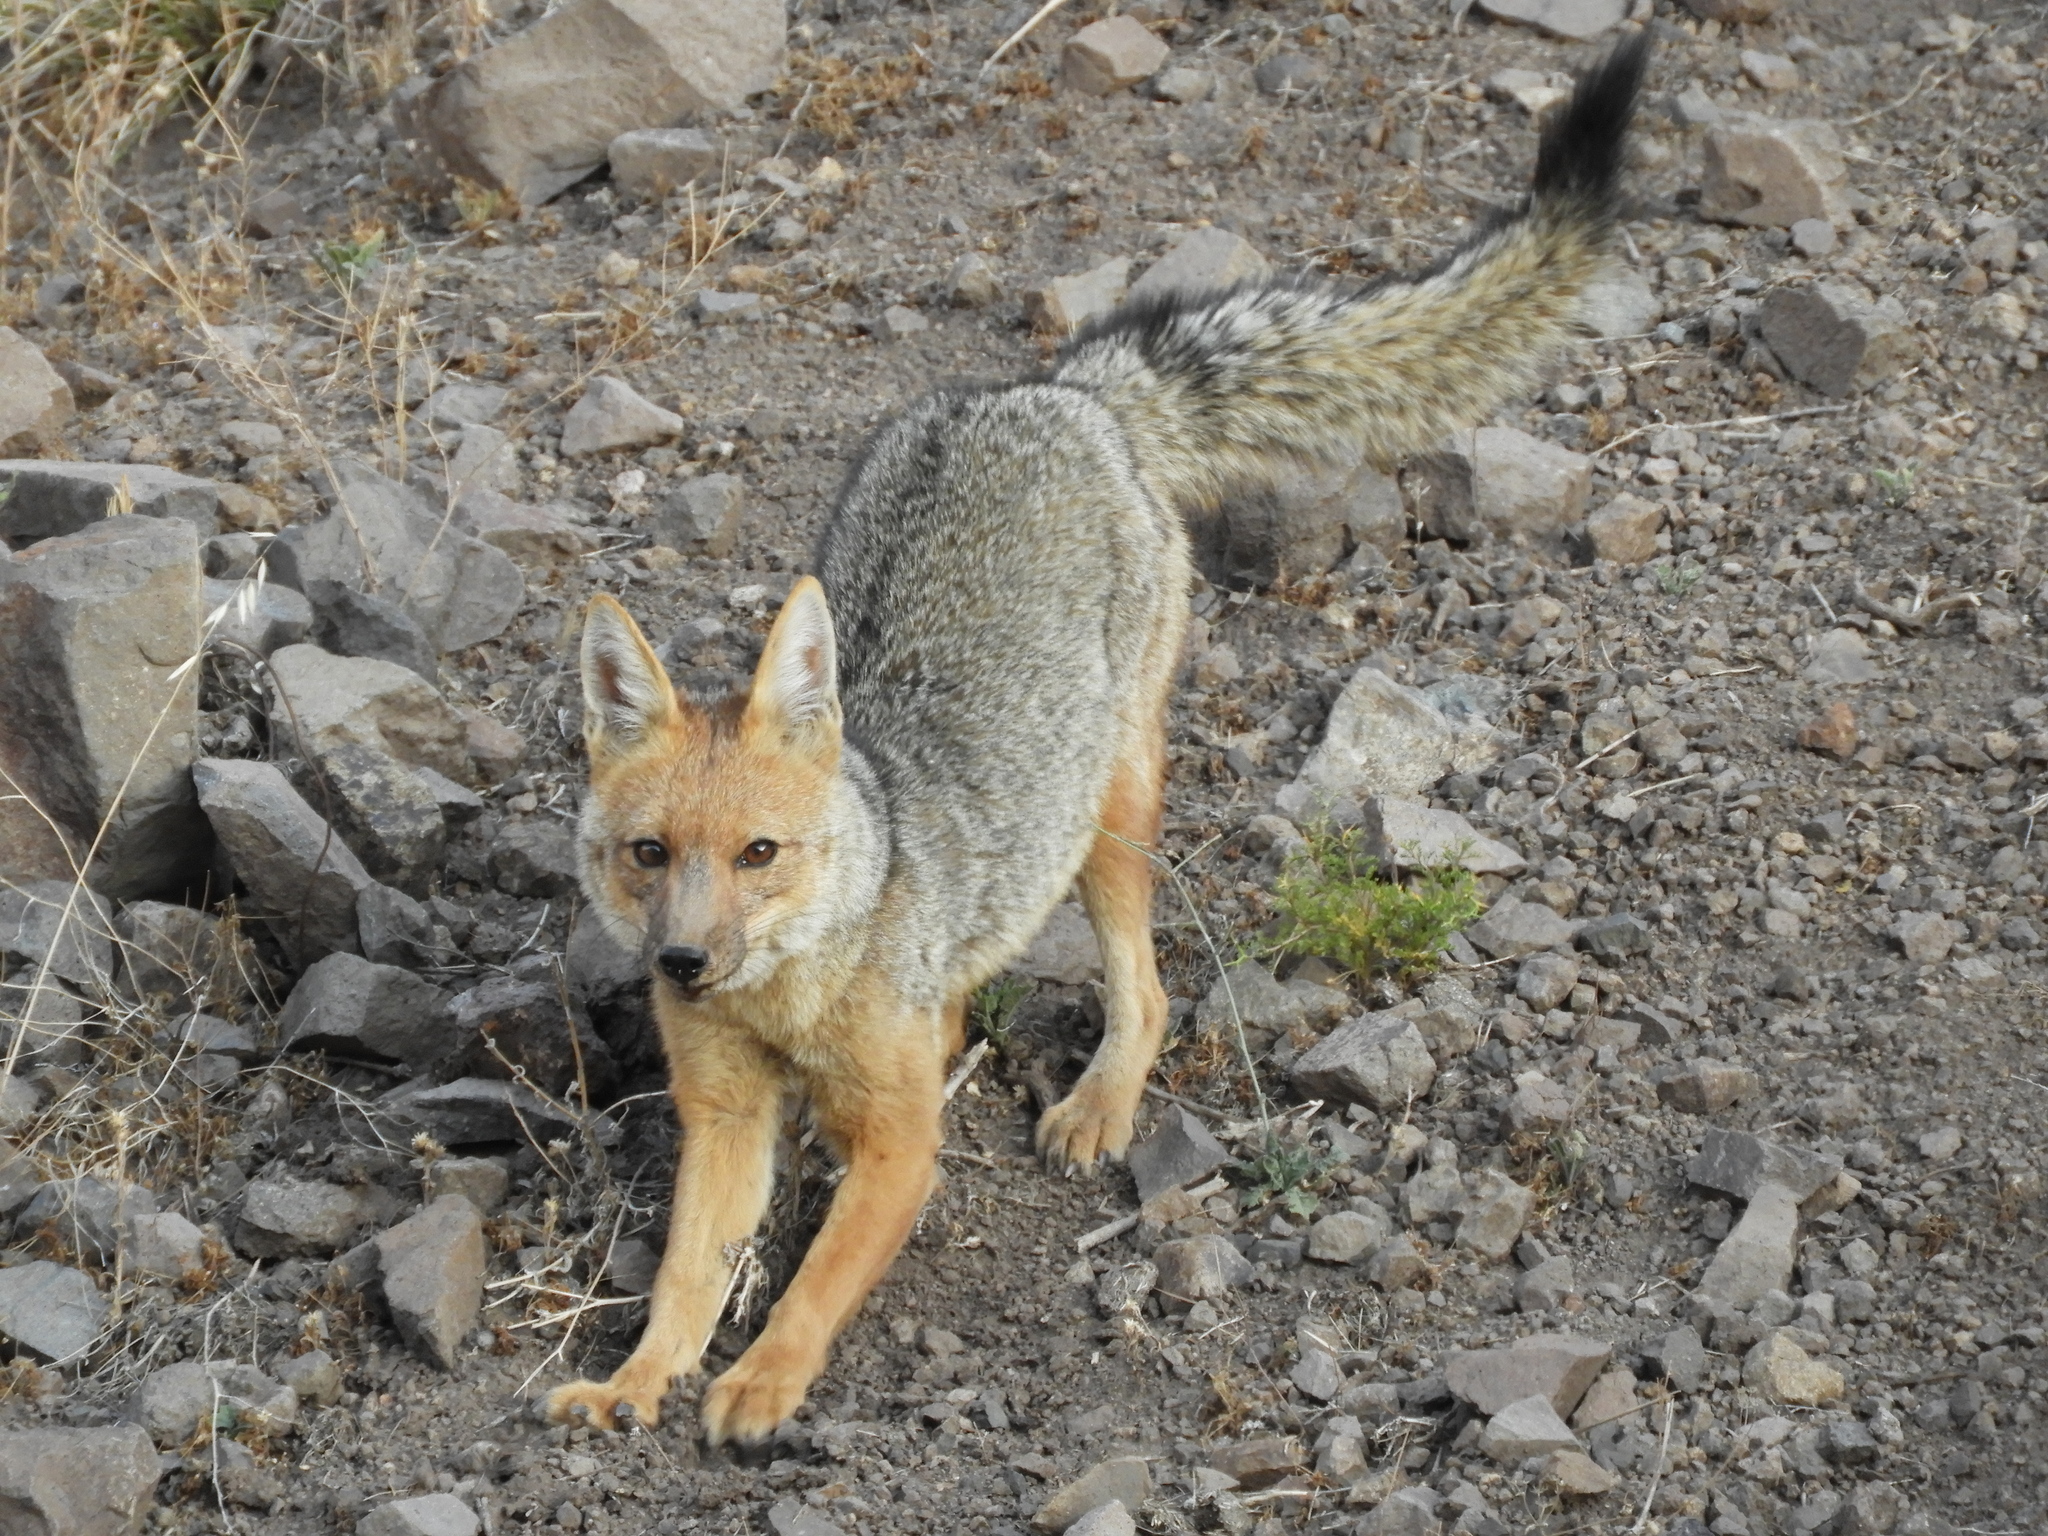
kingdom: Animalia
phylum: Chordata
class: Mammalia
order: Carnivora
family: Canidae
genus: Lycalopex
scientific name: Lycalopex culpaeus
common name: Culpeo
